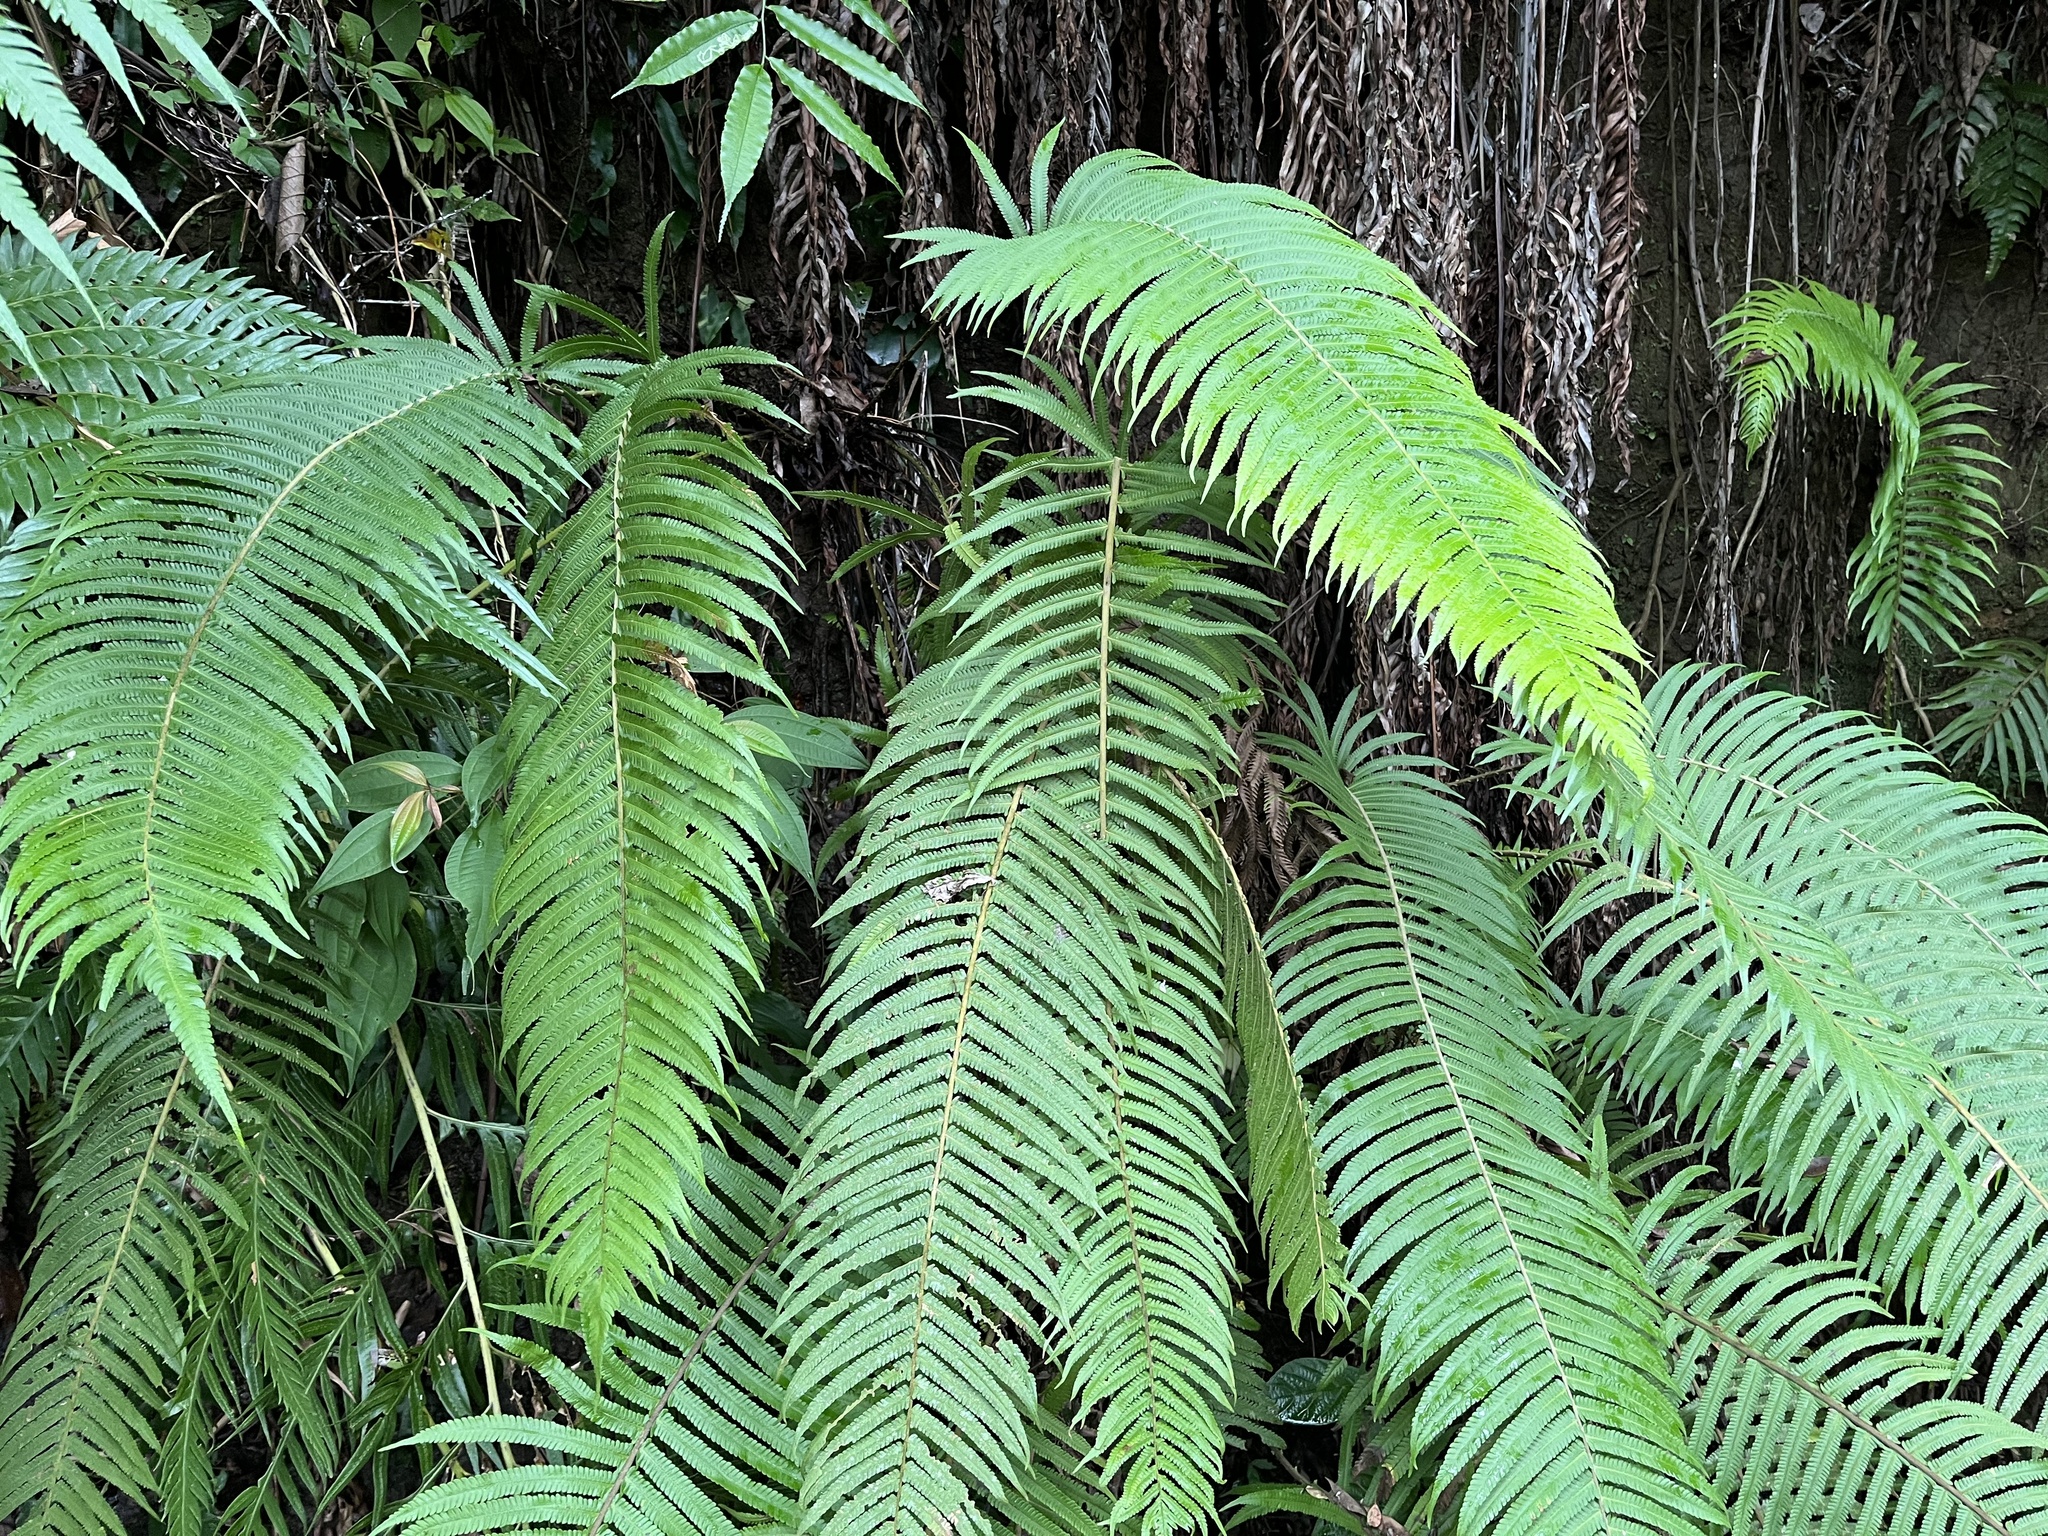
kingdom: Plantae
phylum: Tracheophyta
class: Polypodiopsida
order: Polypodiales
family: Thelypteridaceae
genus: Sphaerostephanos
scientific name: Sphaerostephanos taiwanensis
